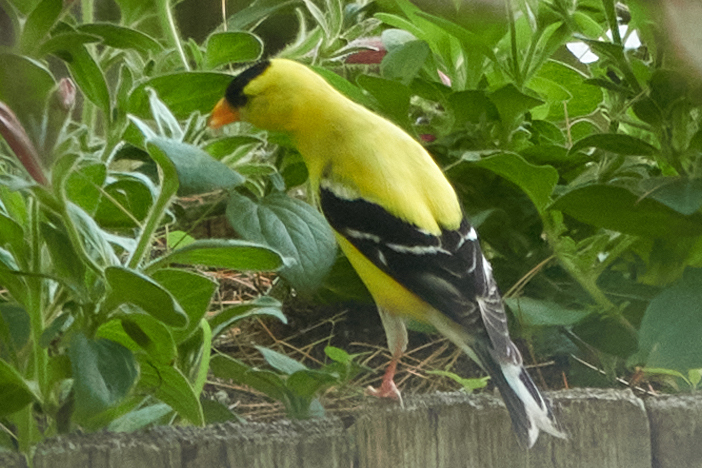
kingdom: Animalia
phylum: Chordata
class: Aves
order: Passeriformes
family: Fringillidae
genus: Spinus
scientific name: Spinus tristis
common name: American goldfinch
